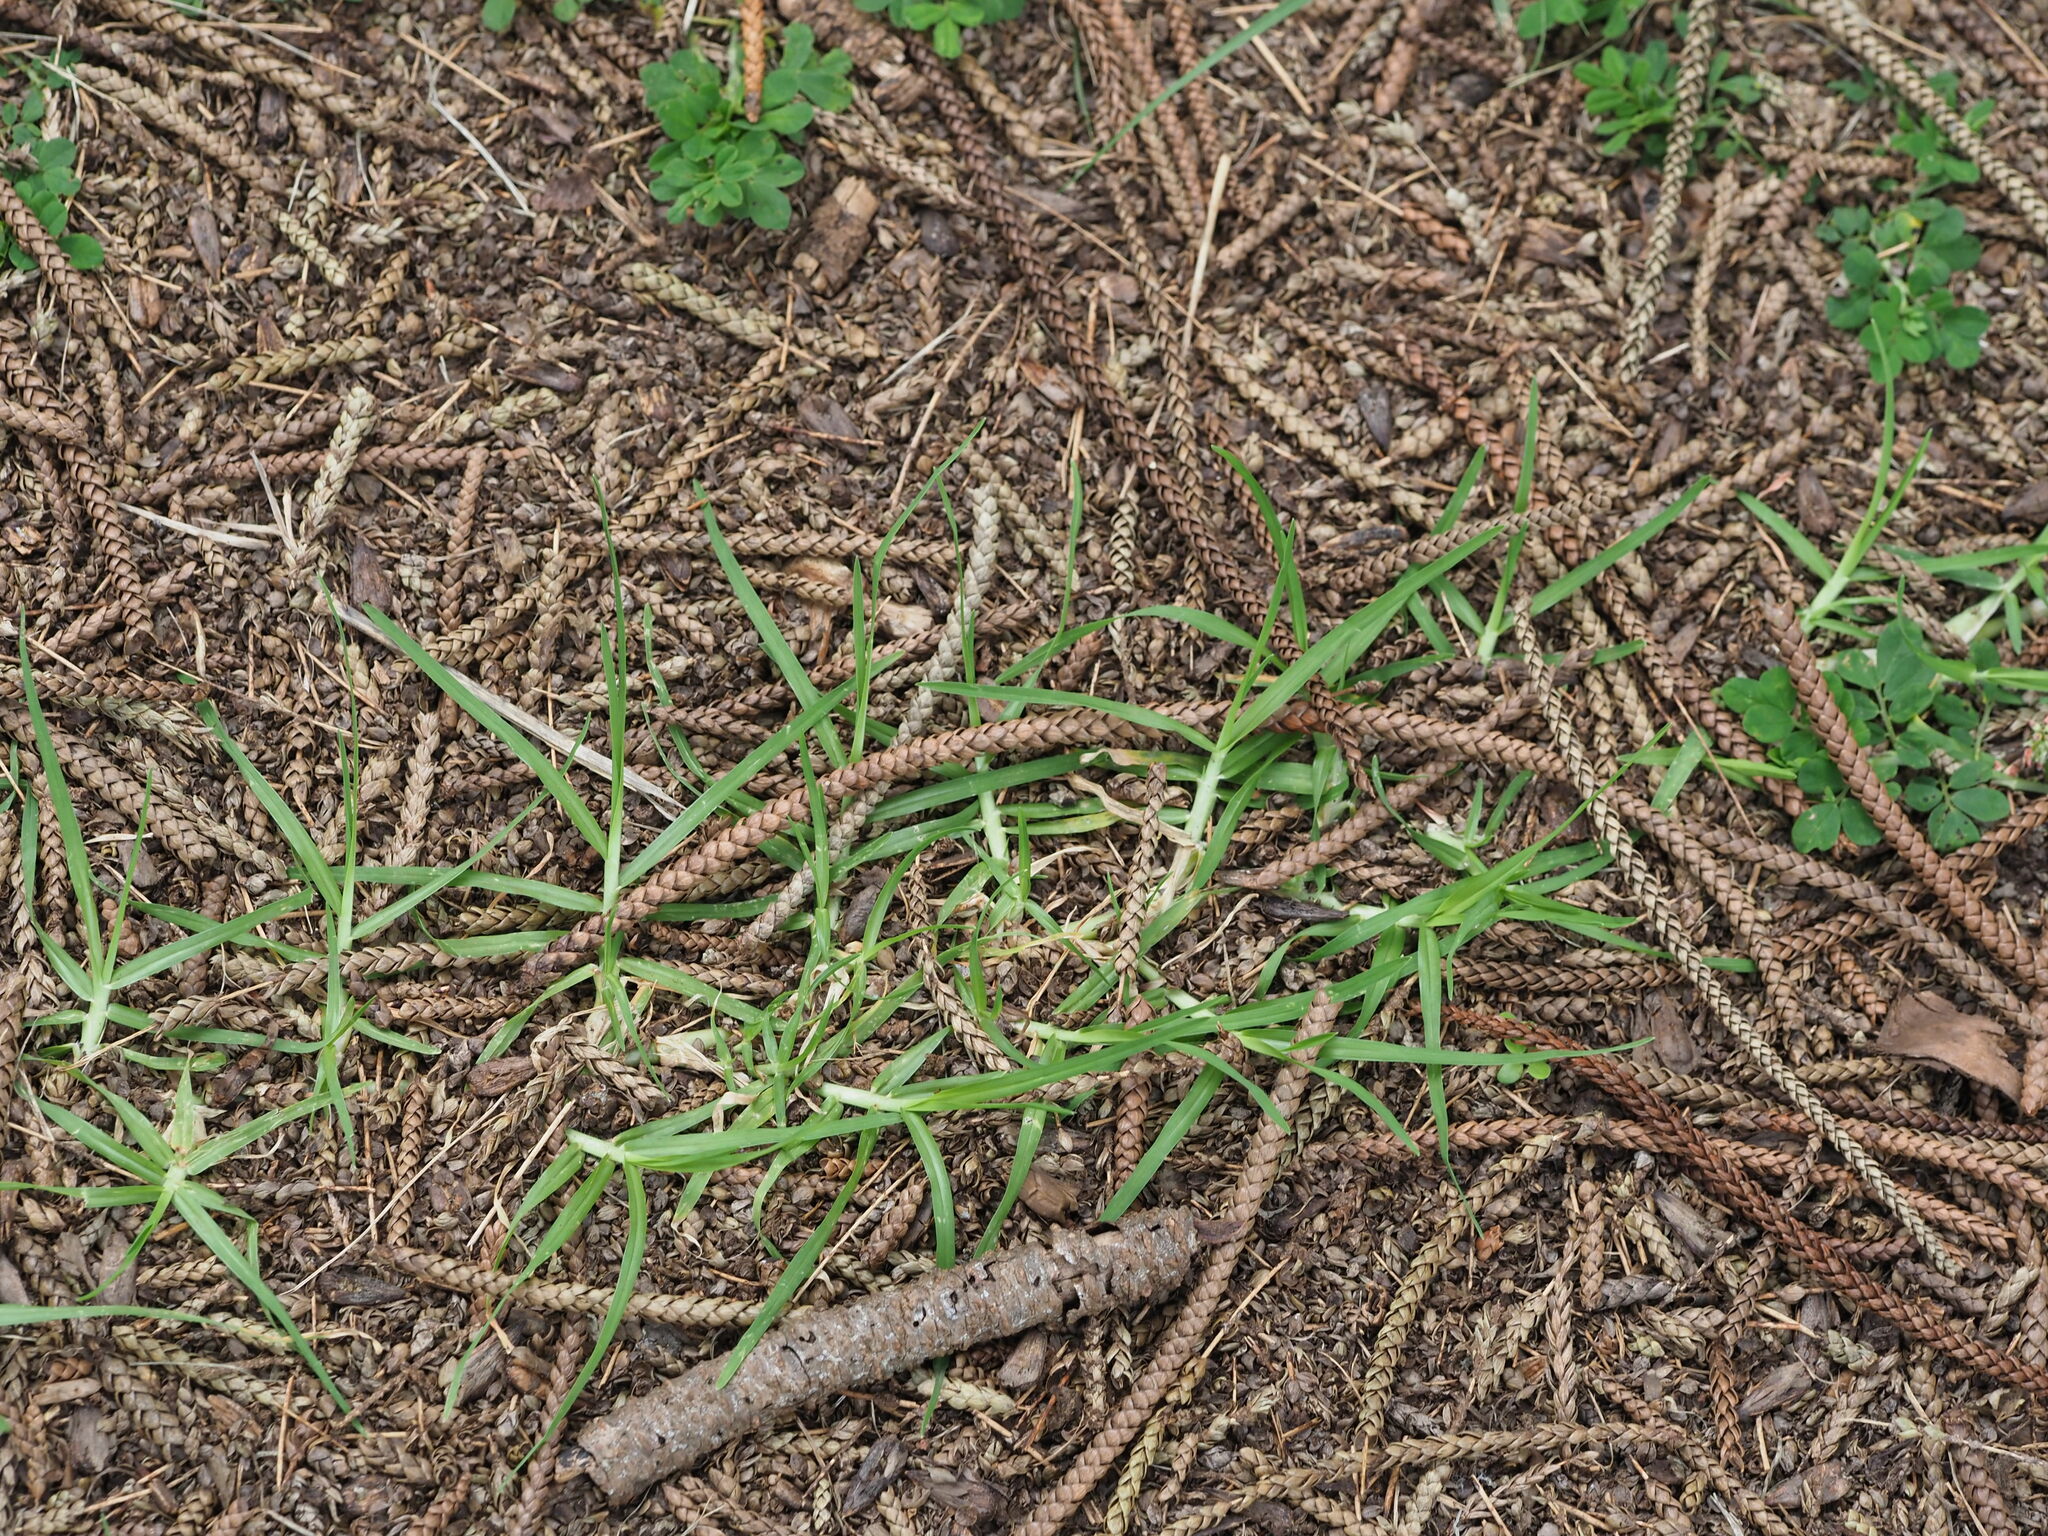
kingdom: Plantae
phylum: Tracheophyta
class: Liliopsida
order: Poales
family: Poaceae
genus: Cenchrus
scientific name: Cenchrus clandestinus
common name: Kikuyugrass
